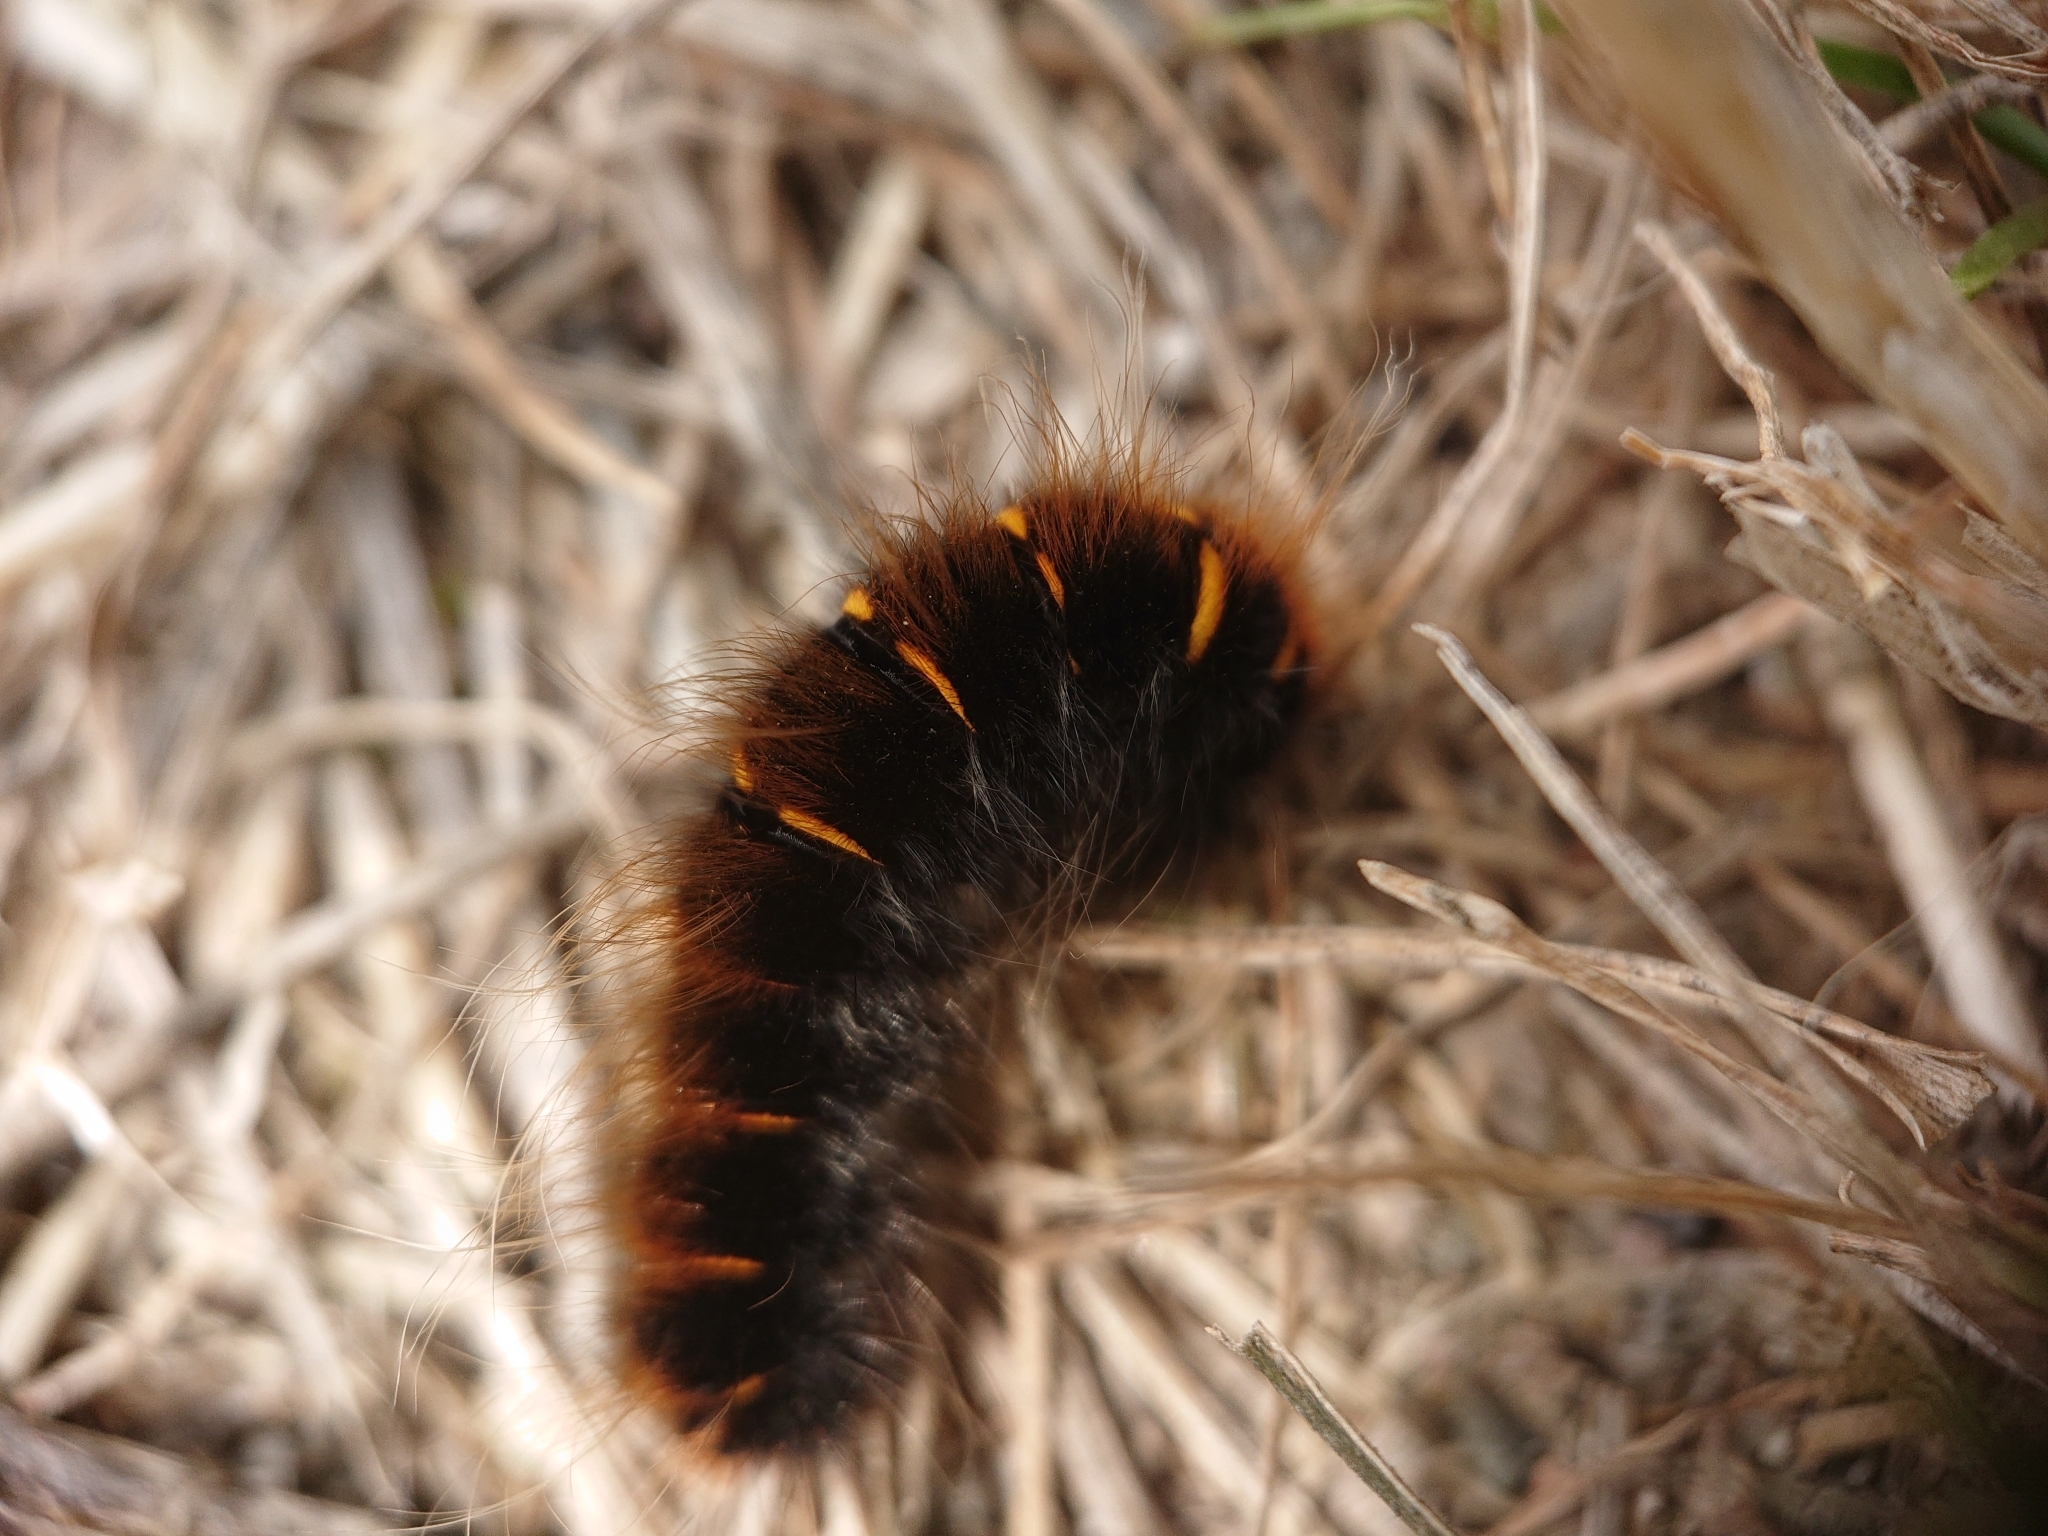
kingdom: Animalia
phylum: Arthropoda
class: Insecta
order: Lepidoptera
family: Lasiocampidae
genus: Macrothylacia
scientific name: Macrothylacia rubi
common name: Fox moth
